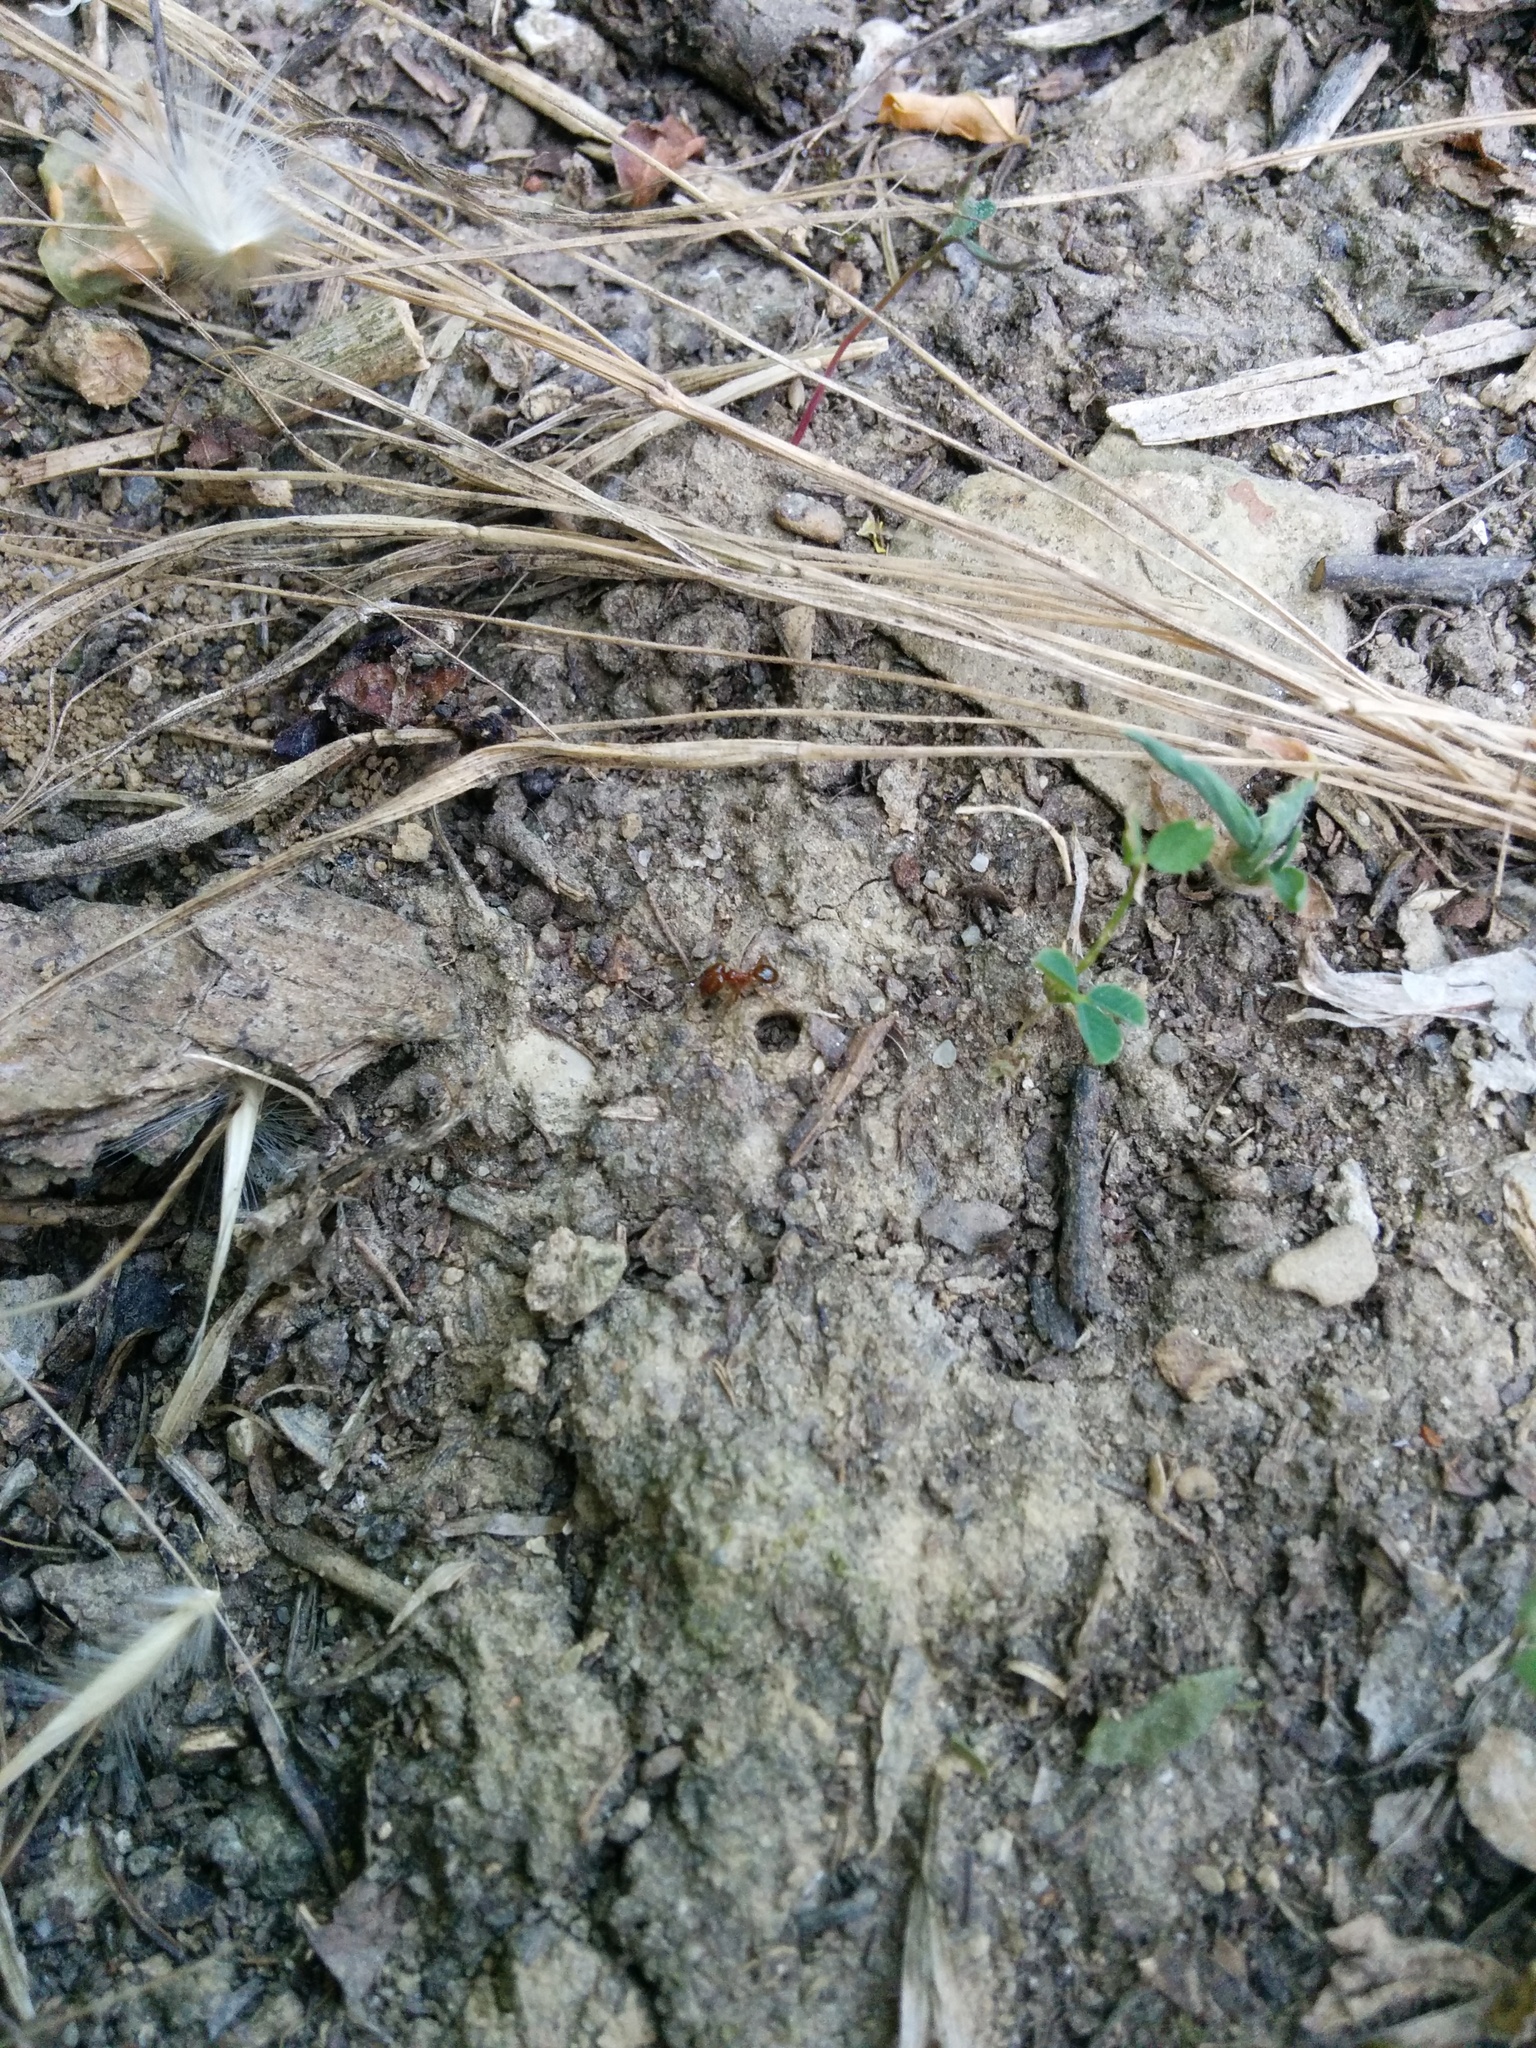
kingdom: Animalia
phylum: Arthropoda
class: Insecta
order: Hymenoptera
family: Formicidae
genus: Pheidole
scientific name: Pheidole pallidula
